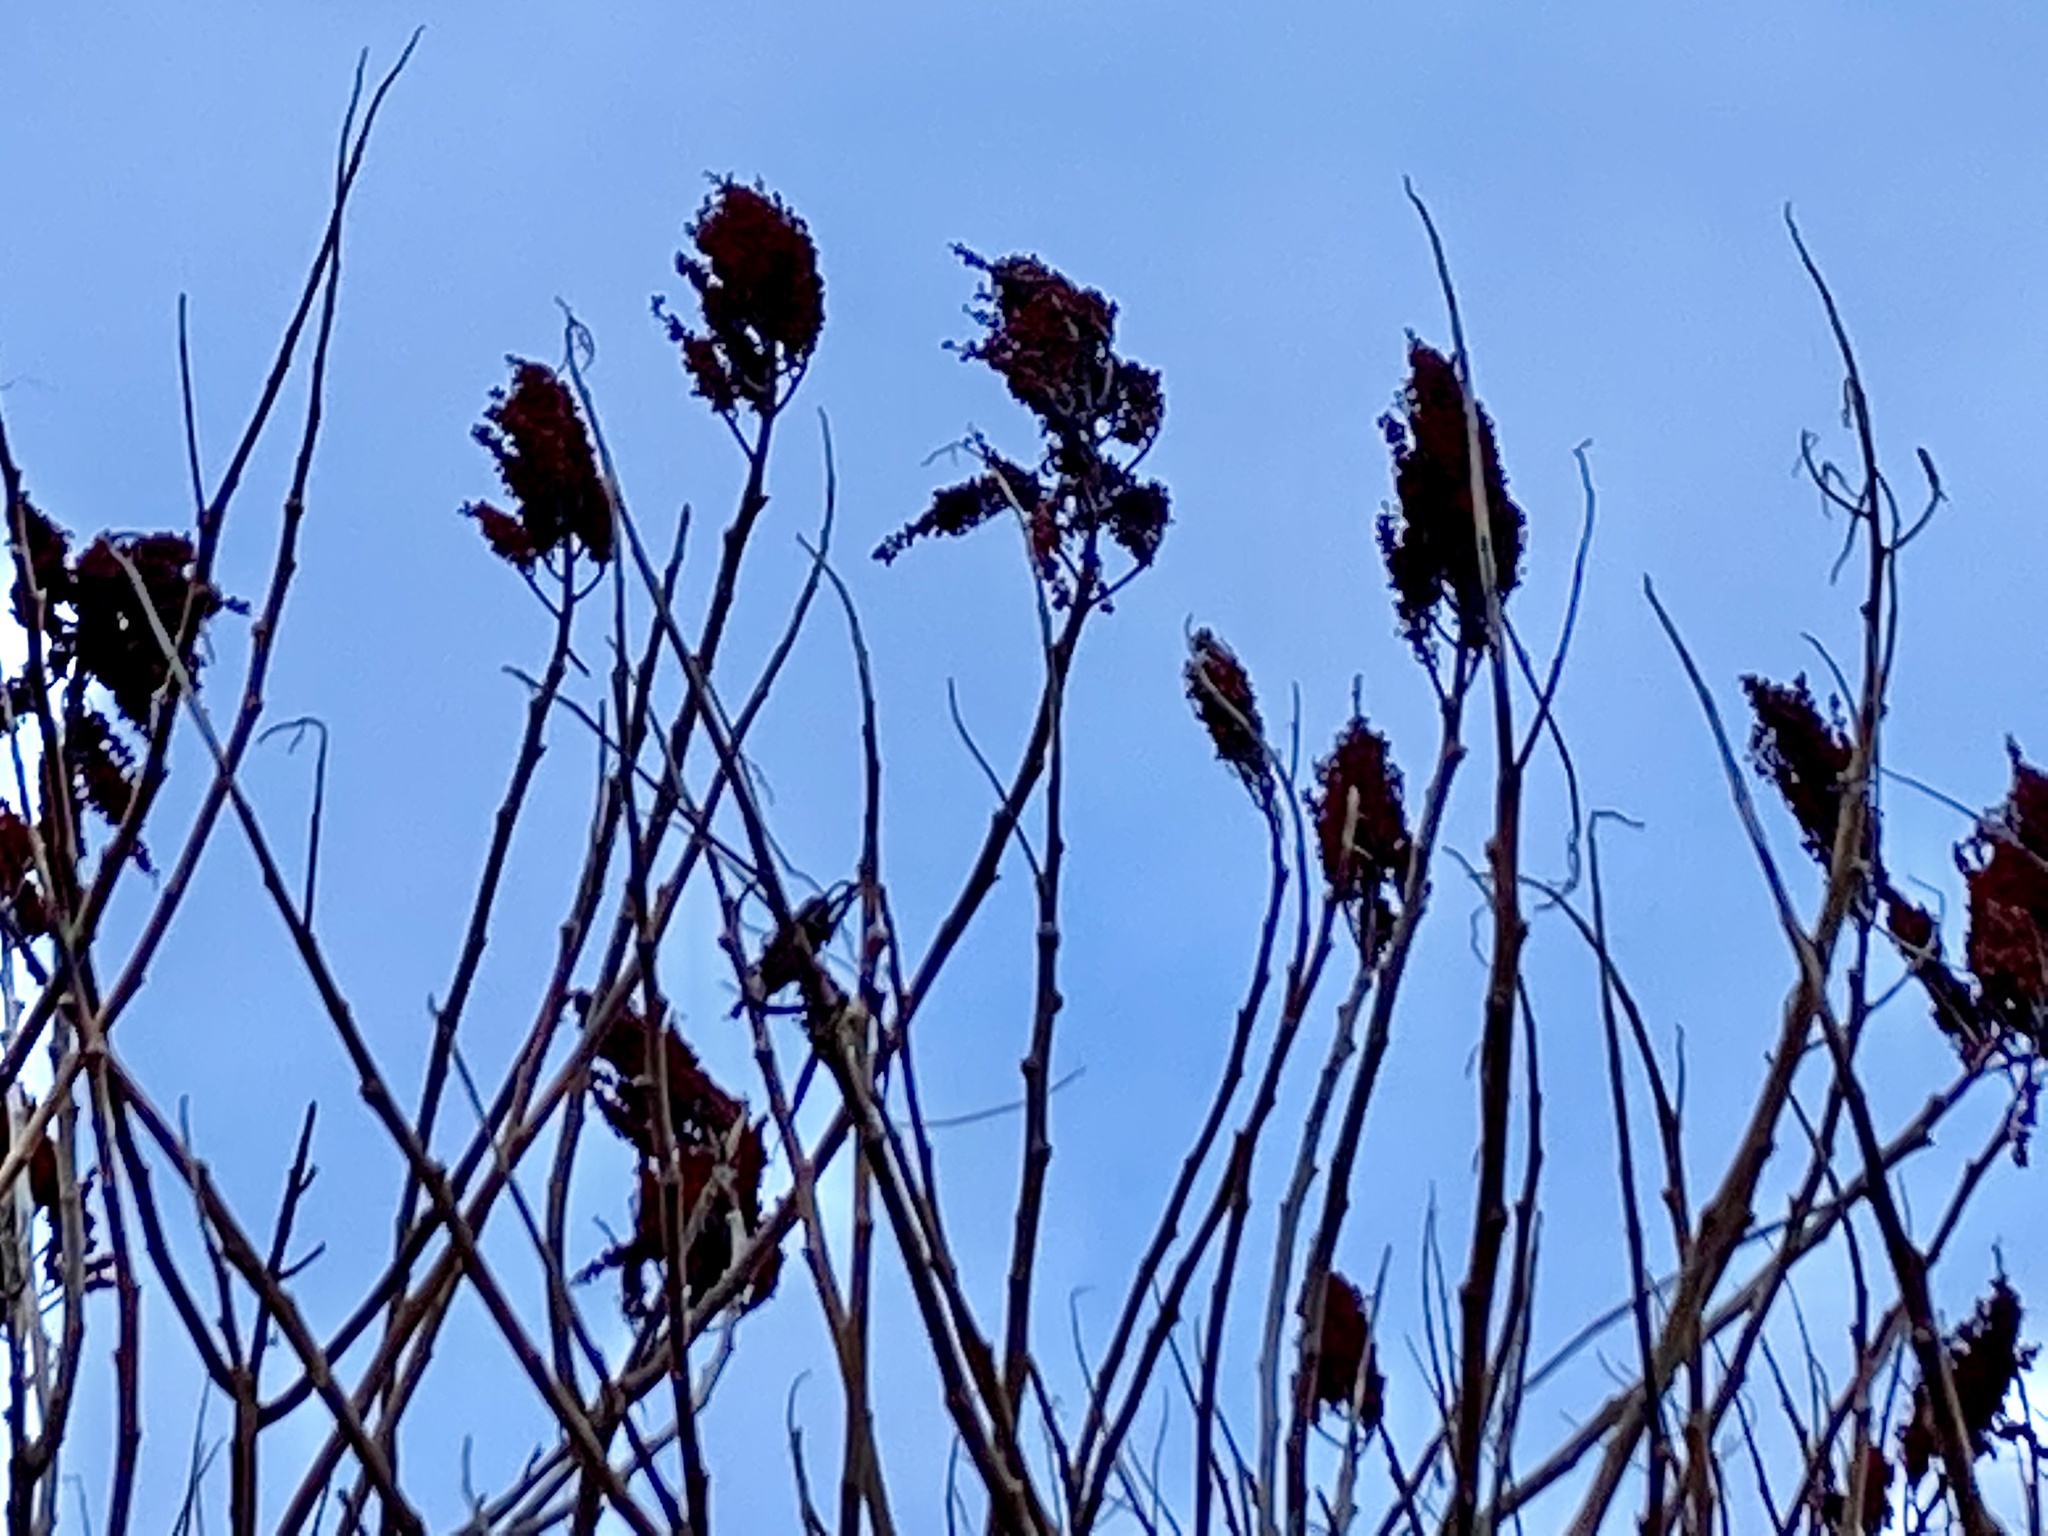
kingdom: Plantae
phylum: Tracheophyta
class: Magnoliopsida
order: Sapindales
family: Anacardiaceae
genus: Rhus
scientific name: Rhus typhina
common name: Staghorn sumac
